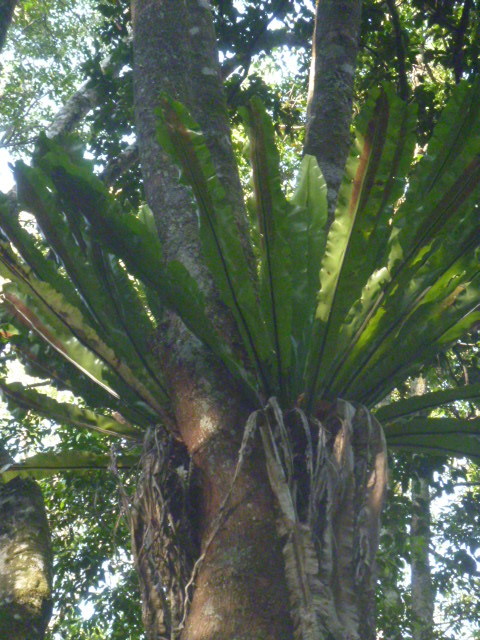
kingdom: Plantae
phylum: Tracheophyta
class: Polypodiopsida
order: Polypodiales
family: Aspleniaceae
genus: Asplenium
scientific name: Asplenium australasicum
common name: Bird's-nest fern
